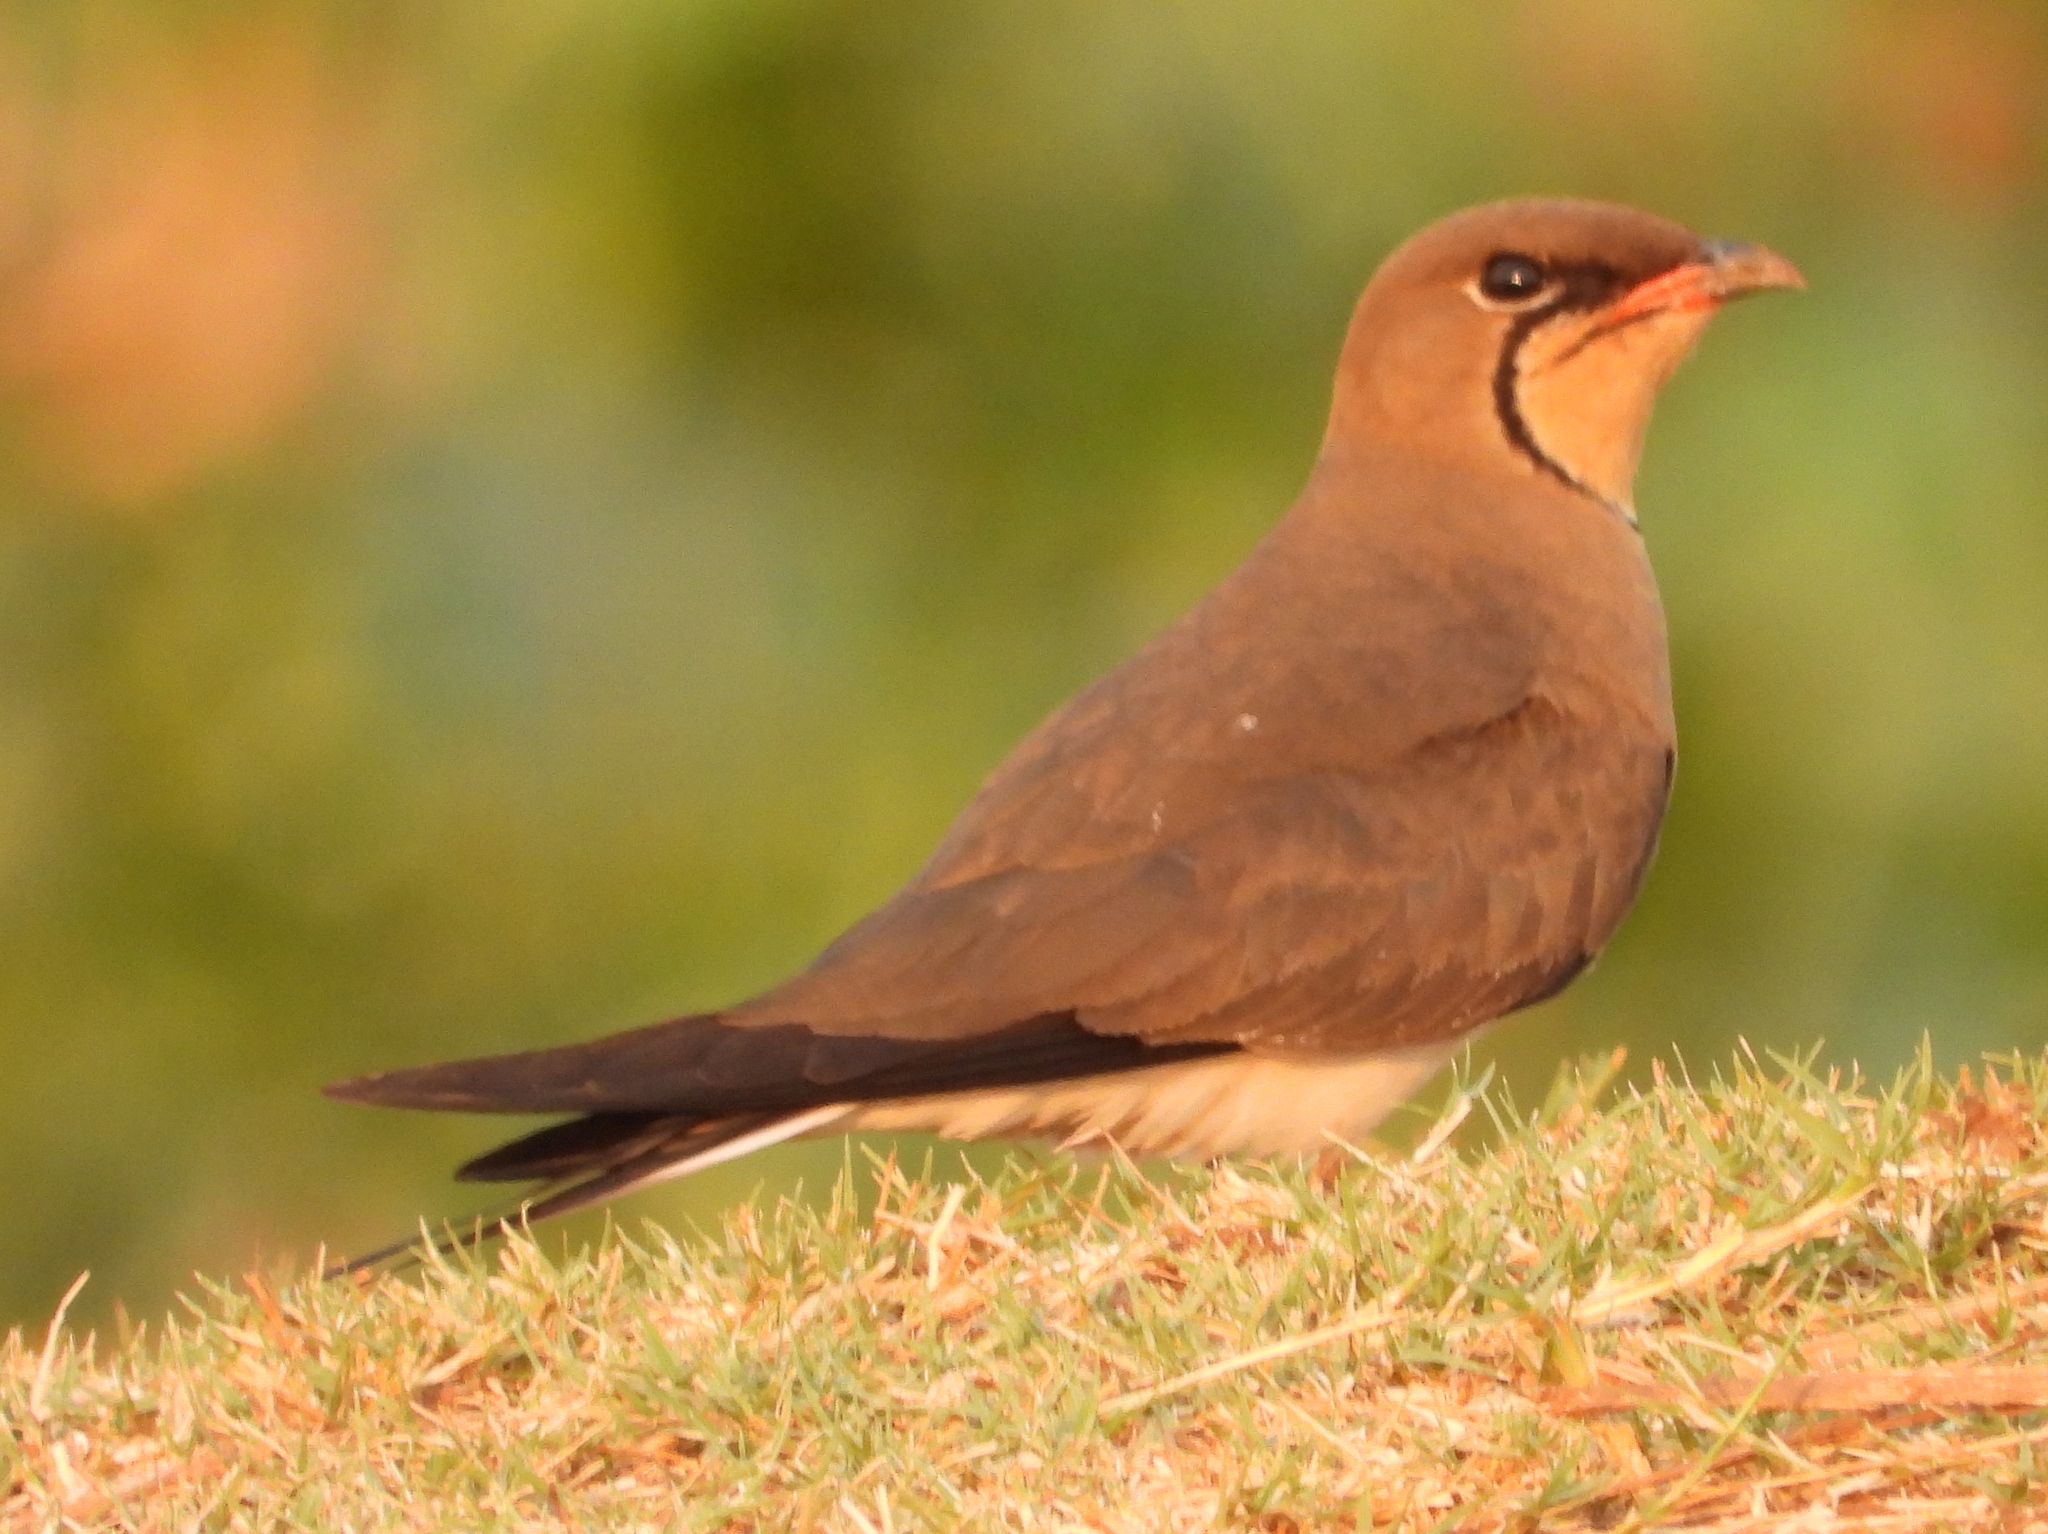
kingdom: Animalia
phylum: Chordata
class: Aves
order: Charadriiformes
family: Glareolidae
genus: Glareola
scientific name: Glareola pratincola
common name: Collared pratincole
